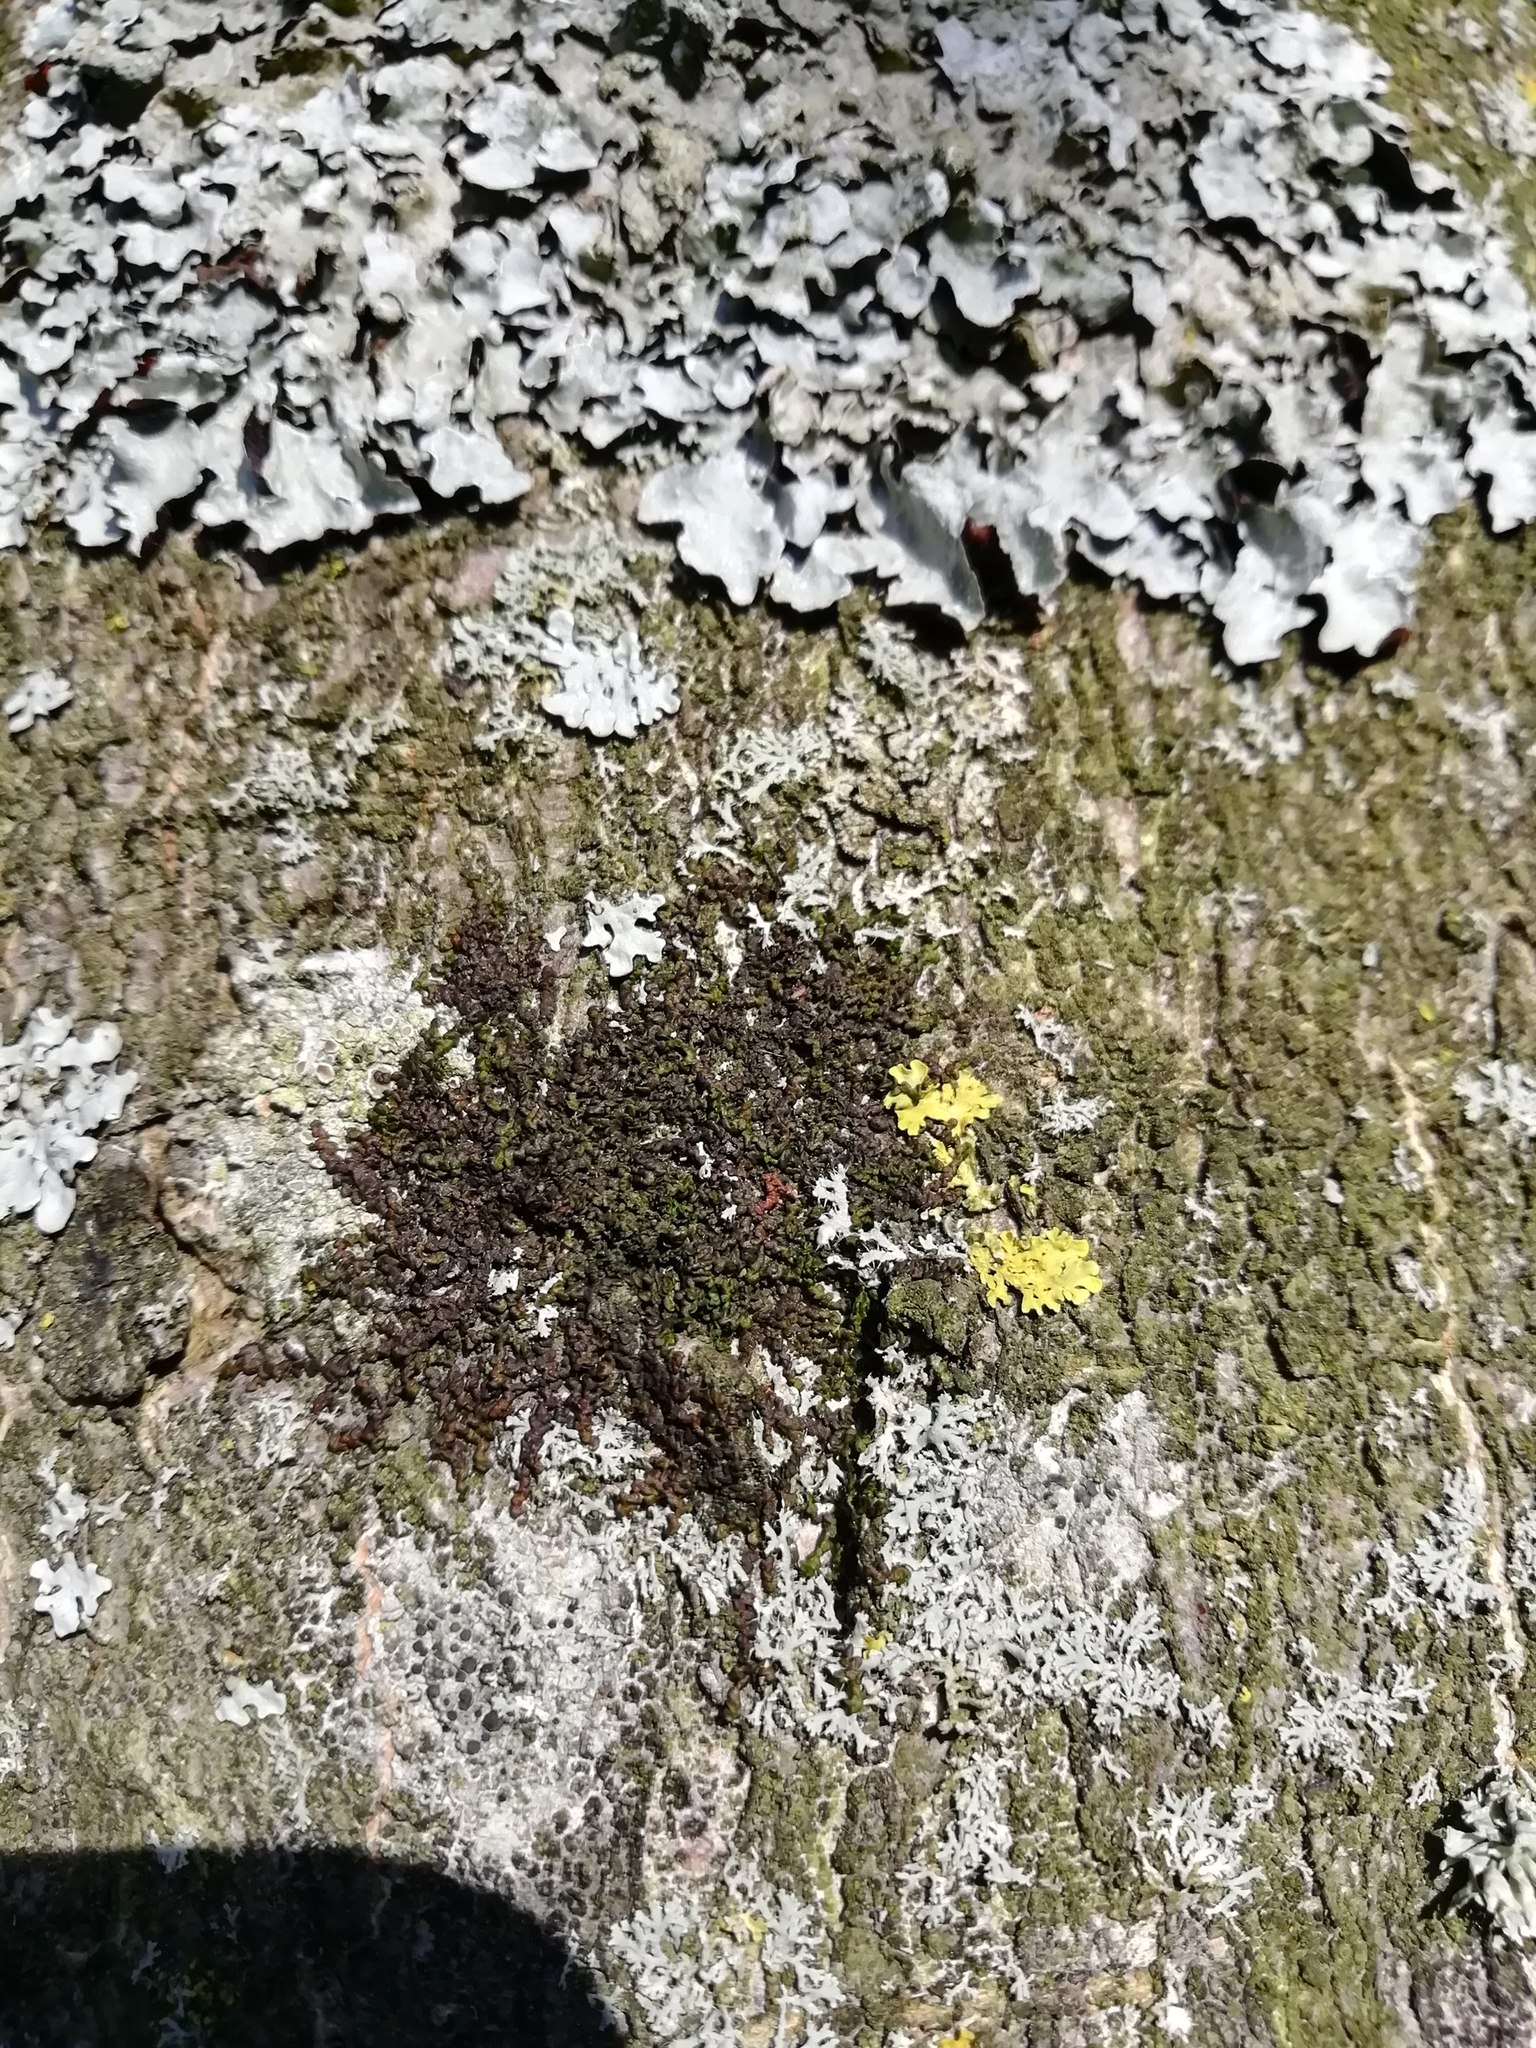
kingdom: Plantae
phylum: Marchantiophyta
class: Jungermanniopsida
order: Porellales
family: Frullaniaceae
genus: Frullania
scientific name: Frullania dilatata
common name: Dilated scalewort
